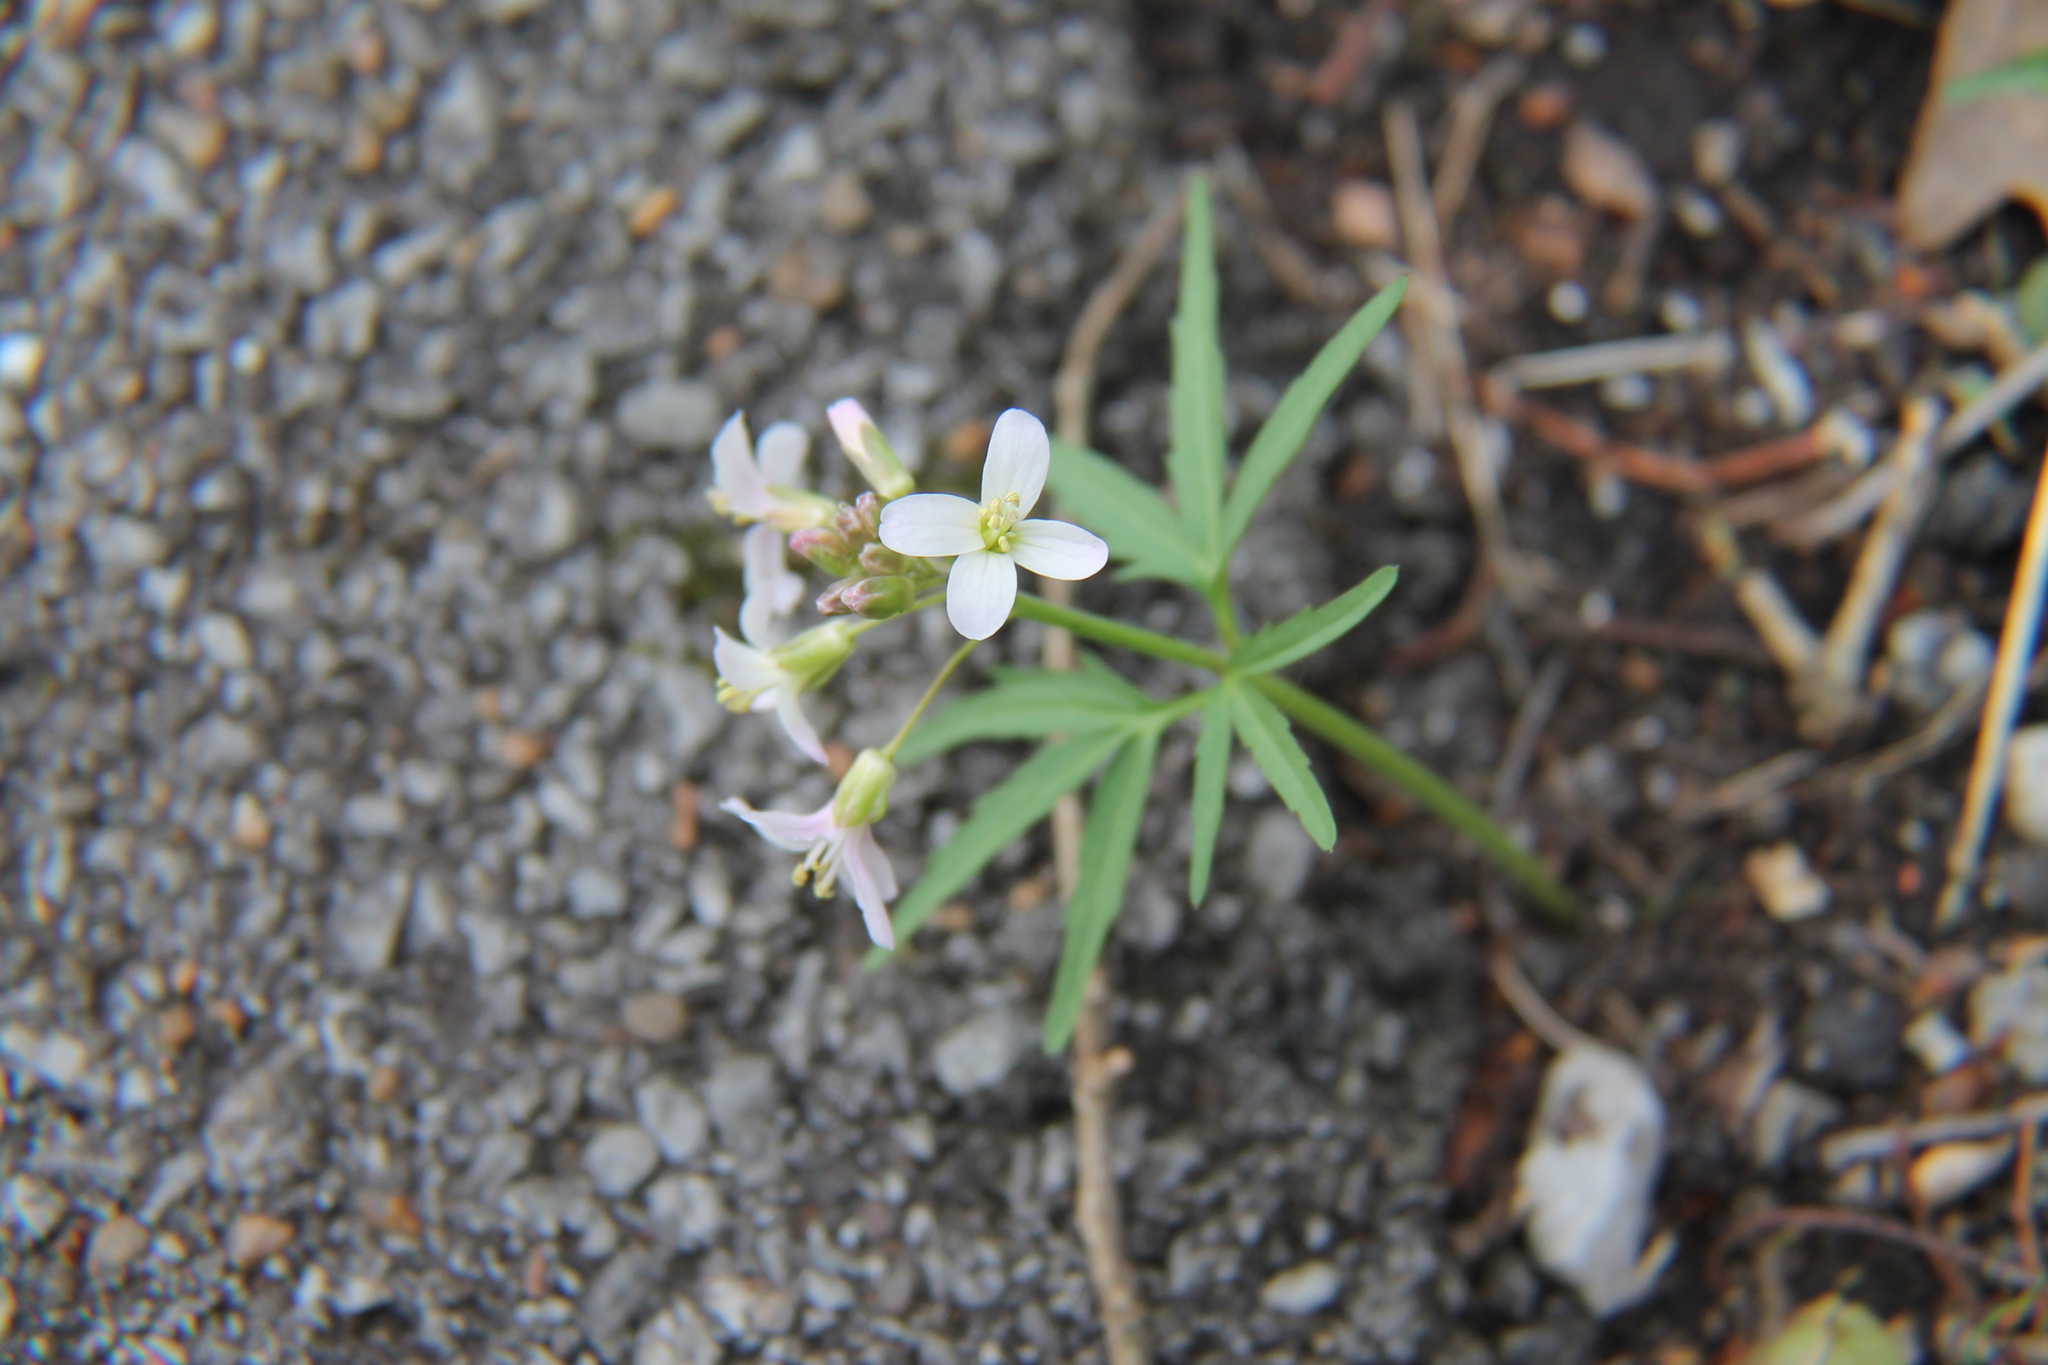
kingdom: Plantae
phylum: Tracheophyta
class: Magnoliopsida
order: Brassicales
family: Brassicaceae
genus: Cardamine
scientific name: Cardamine concatenata
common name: Cut-leaf toothcup
